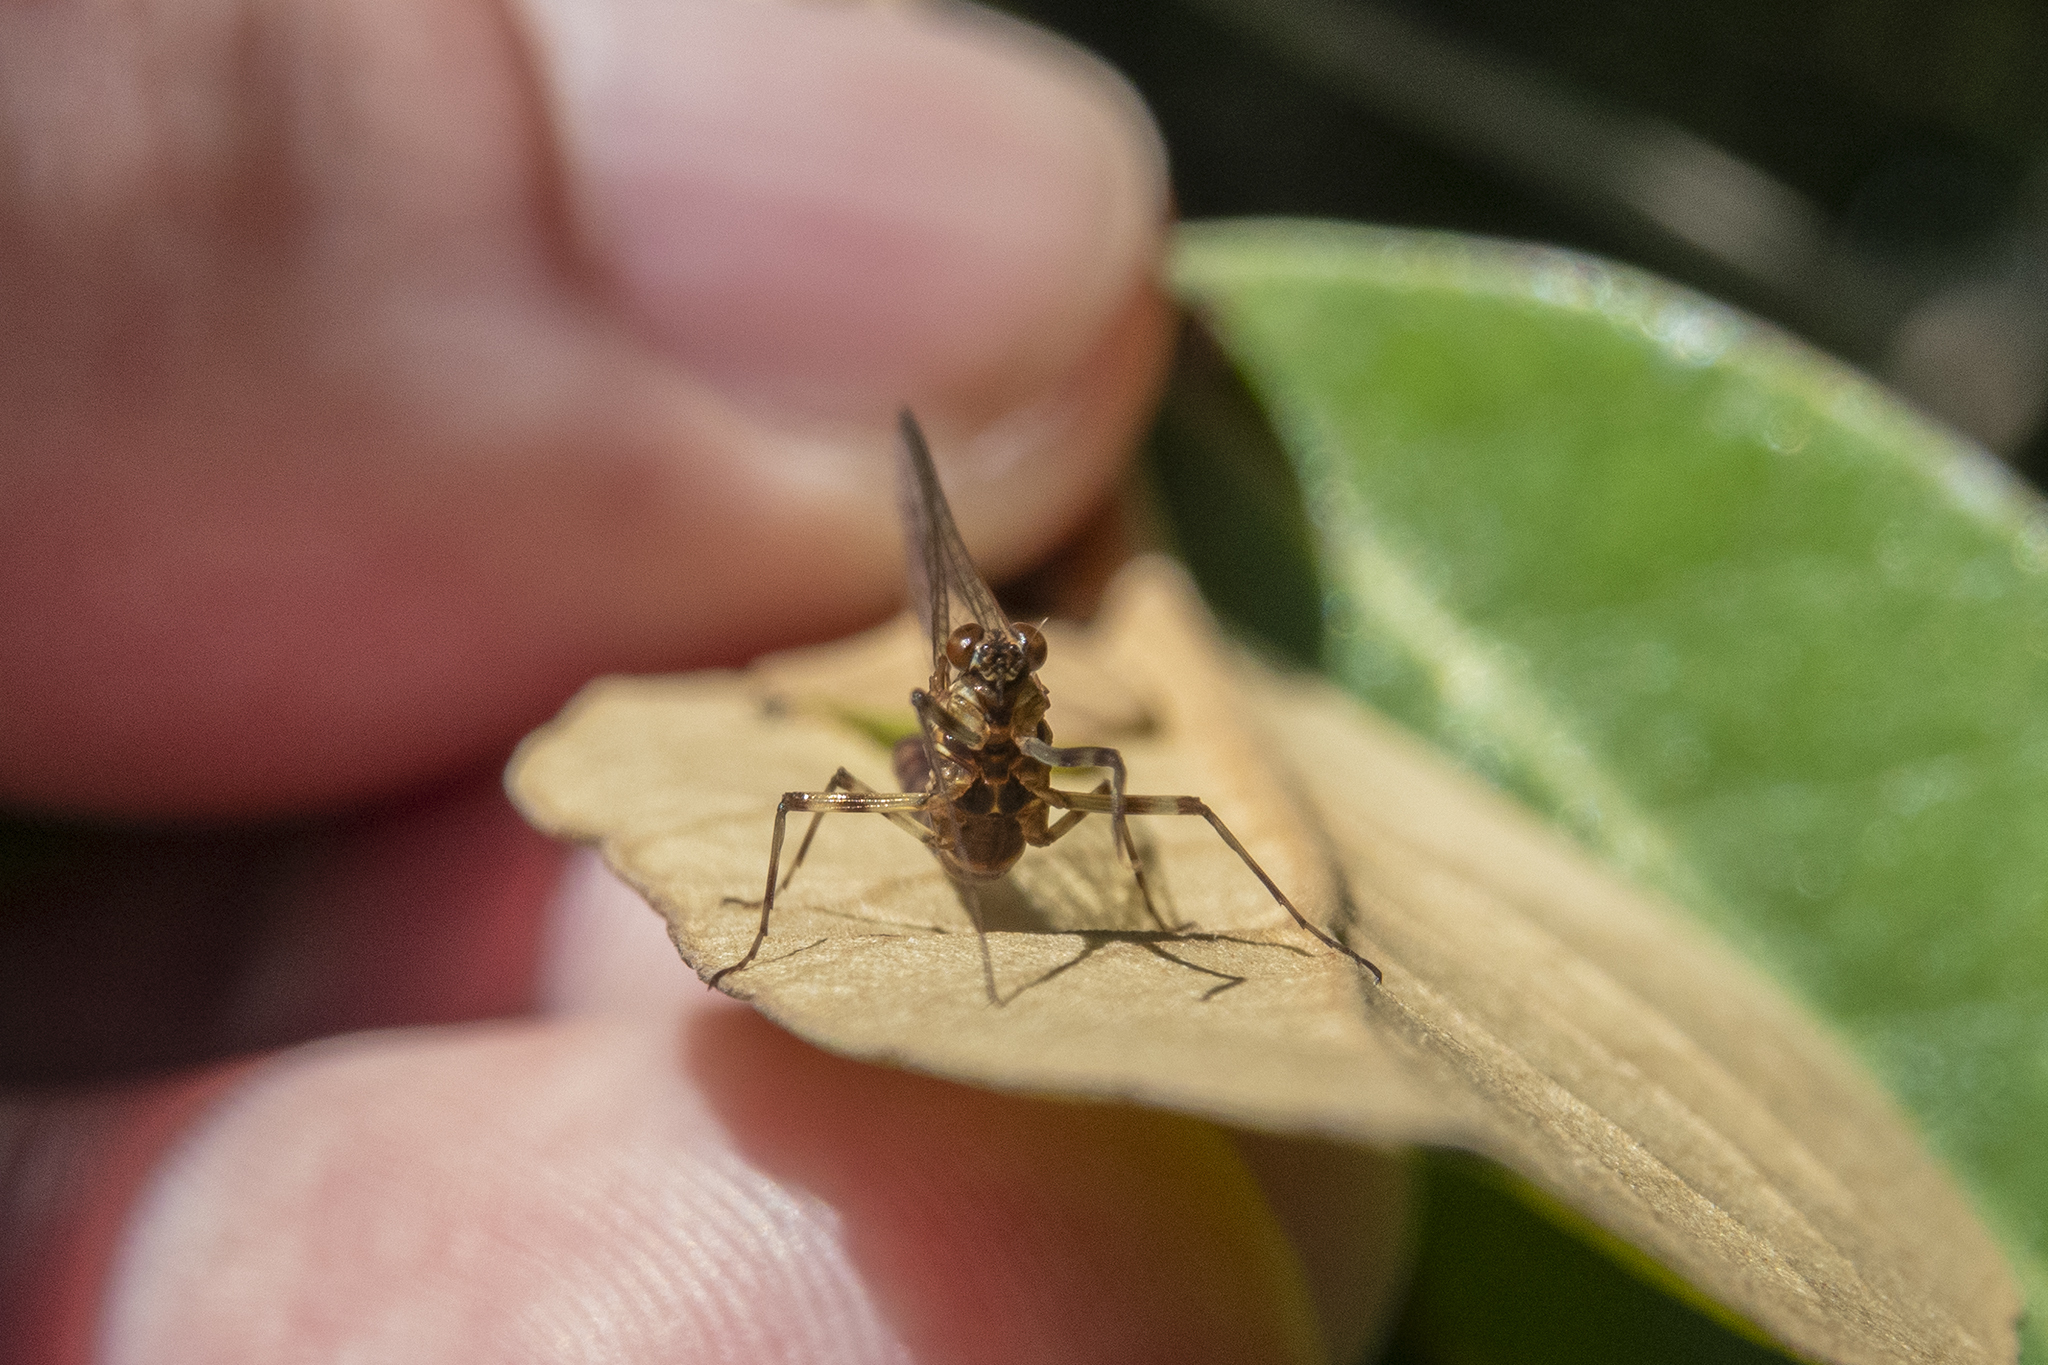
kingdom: Animalia
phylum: Arthropoda
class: Insecta
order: Ephemeroptera
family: Nesameletidae
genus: Nesameletus
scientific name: Nesameletus austrinus
